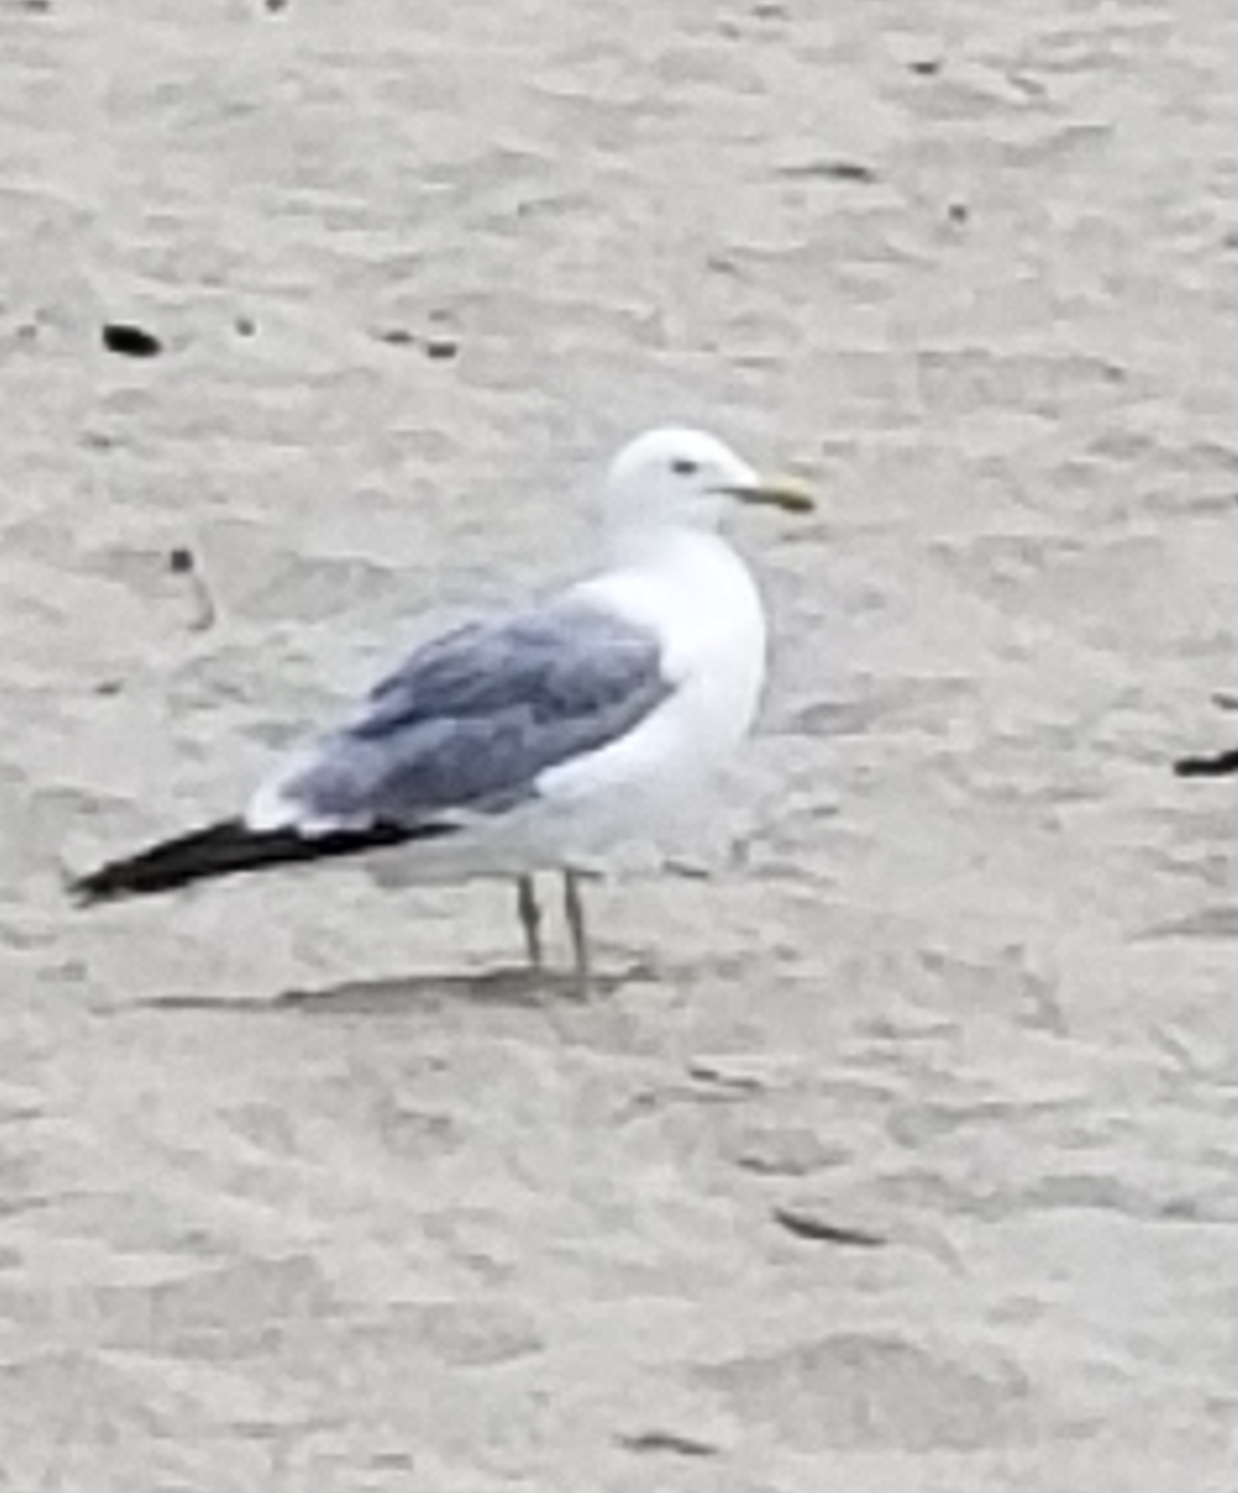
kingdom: Animalia
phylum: Chordata
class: Aves
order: Charadriiformes
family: Laridae
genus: Larus
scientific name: Larus californicus
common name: California gull
